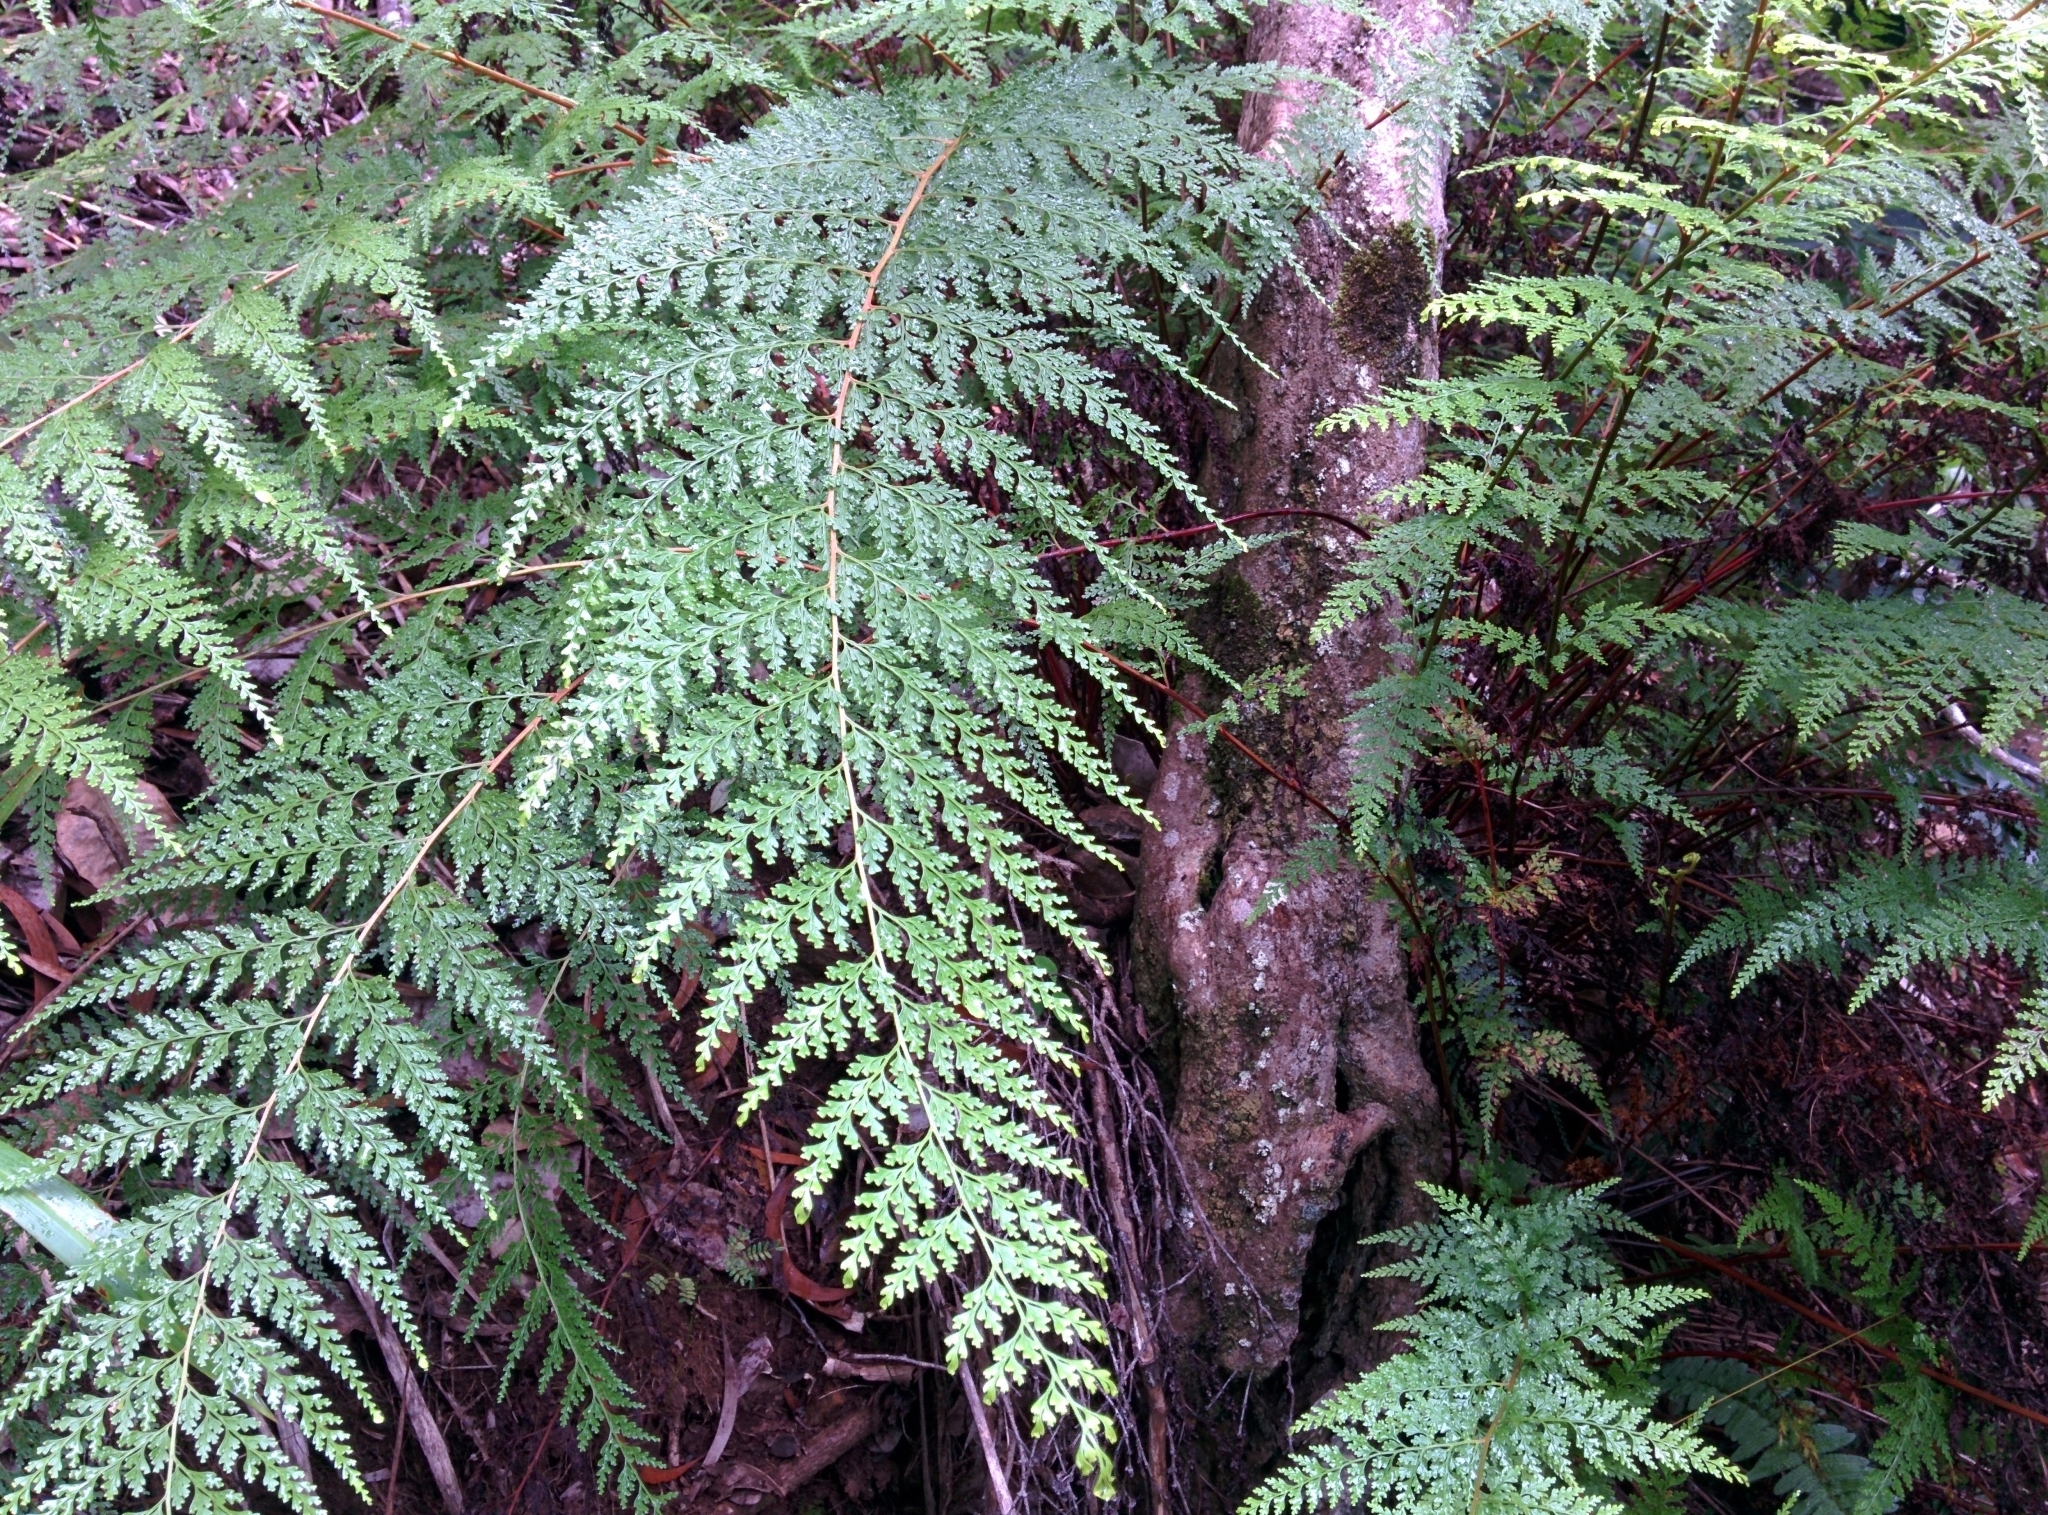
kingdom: Plantae
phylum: Tracheophyta
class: Polypodiopsida
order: Polypodiales
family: Lindsaeaceae
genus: Odontosoria
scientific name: Odontosoria chinensis
